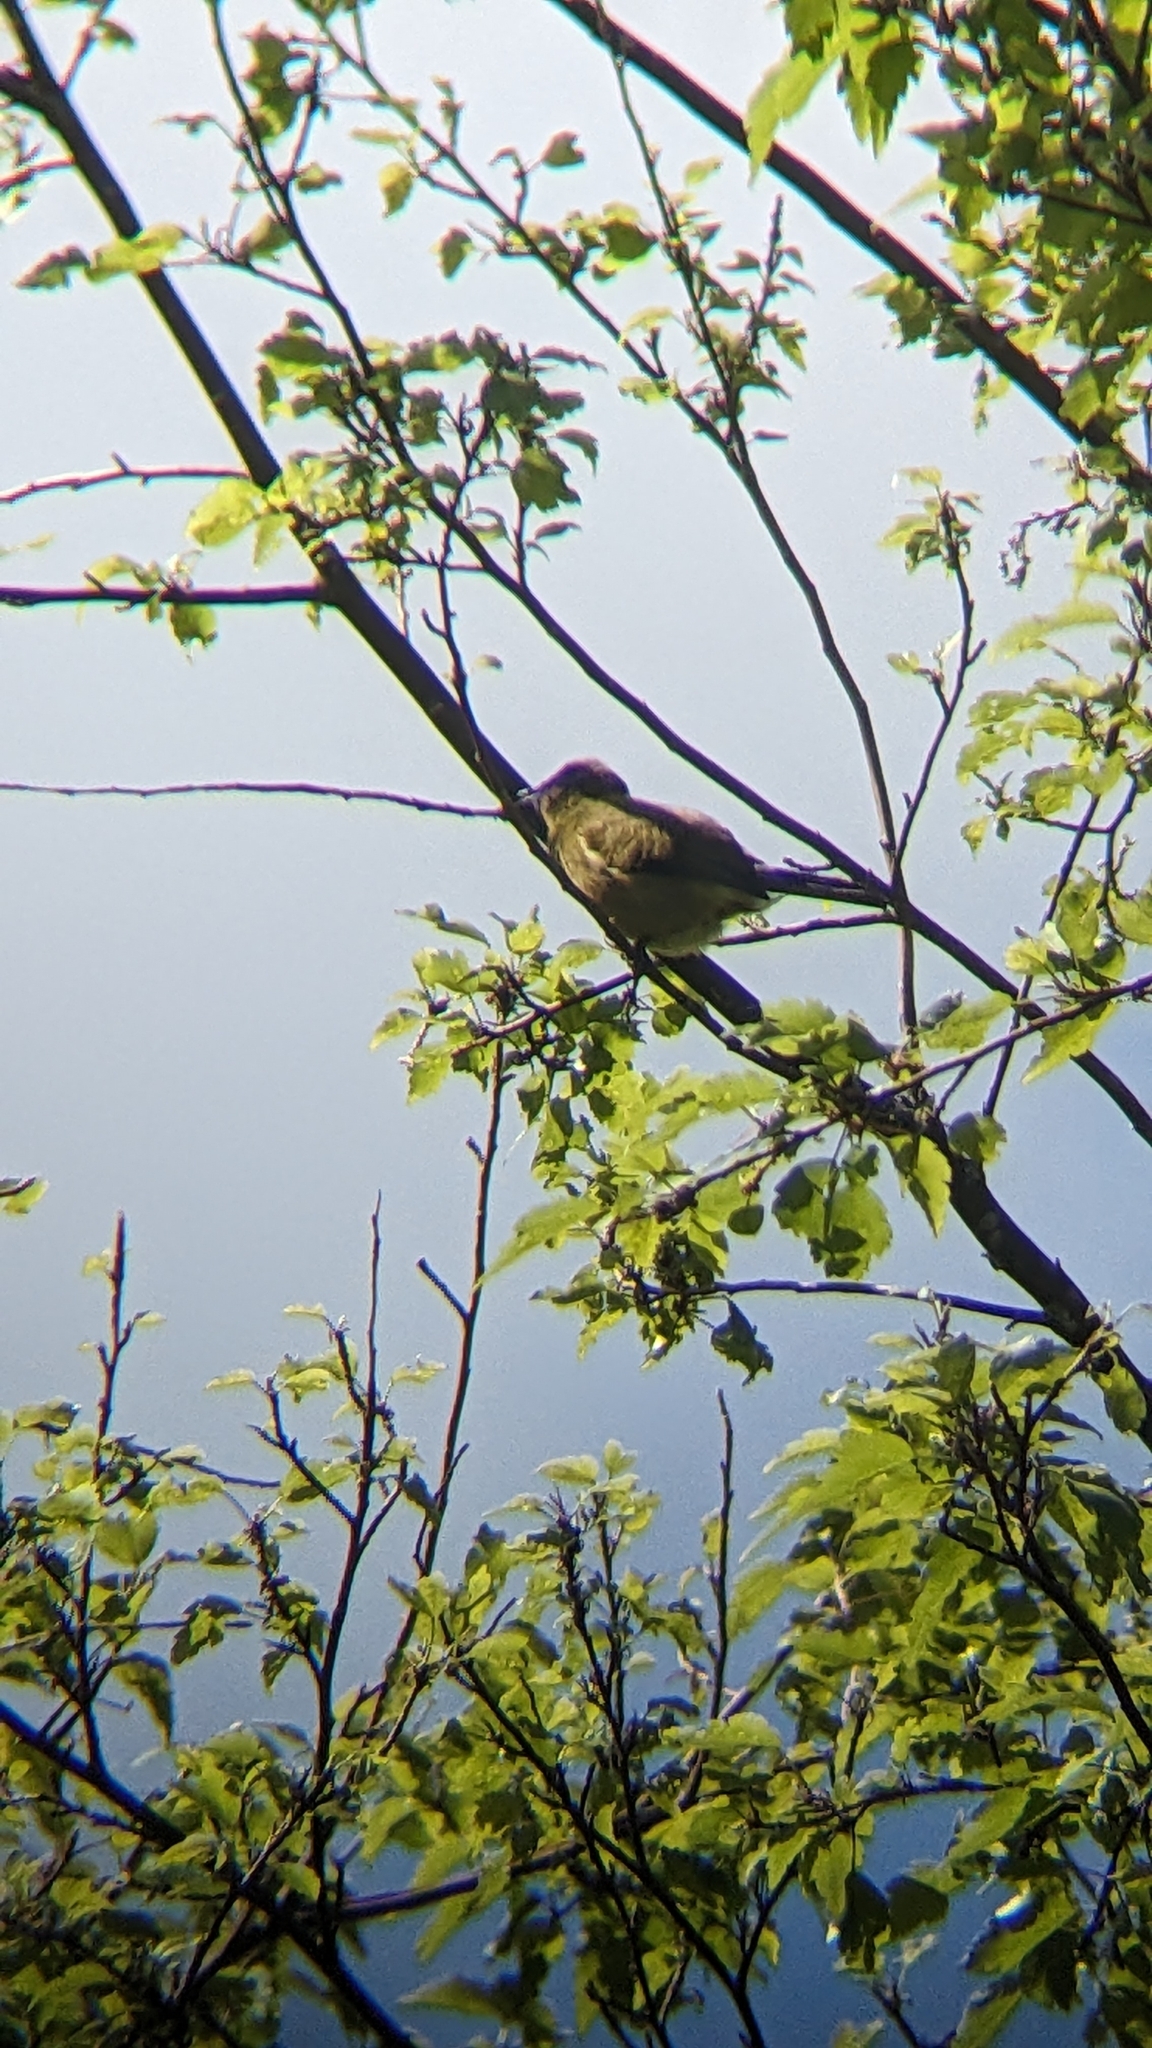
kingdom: Animalia
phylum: Chordata
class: Aves
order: Passeriformes
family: Meliphagidae
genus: Anthornis
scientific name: Anthornis melanura
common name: New zealand bellbird
